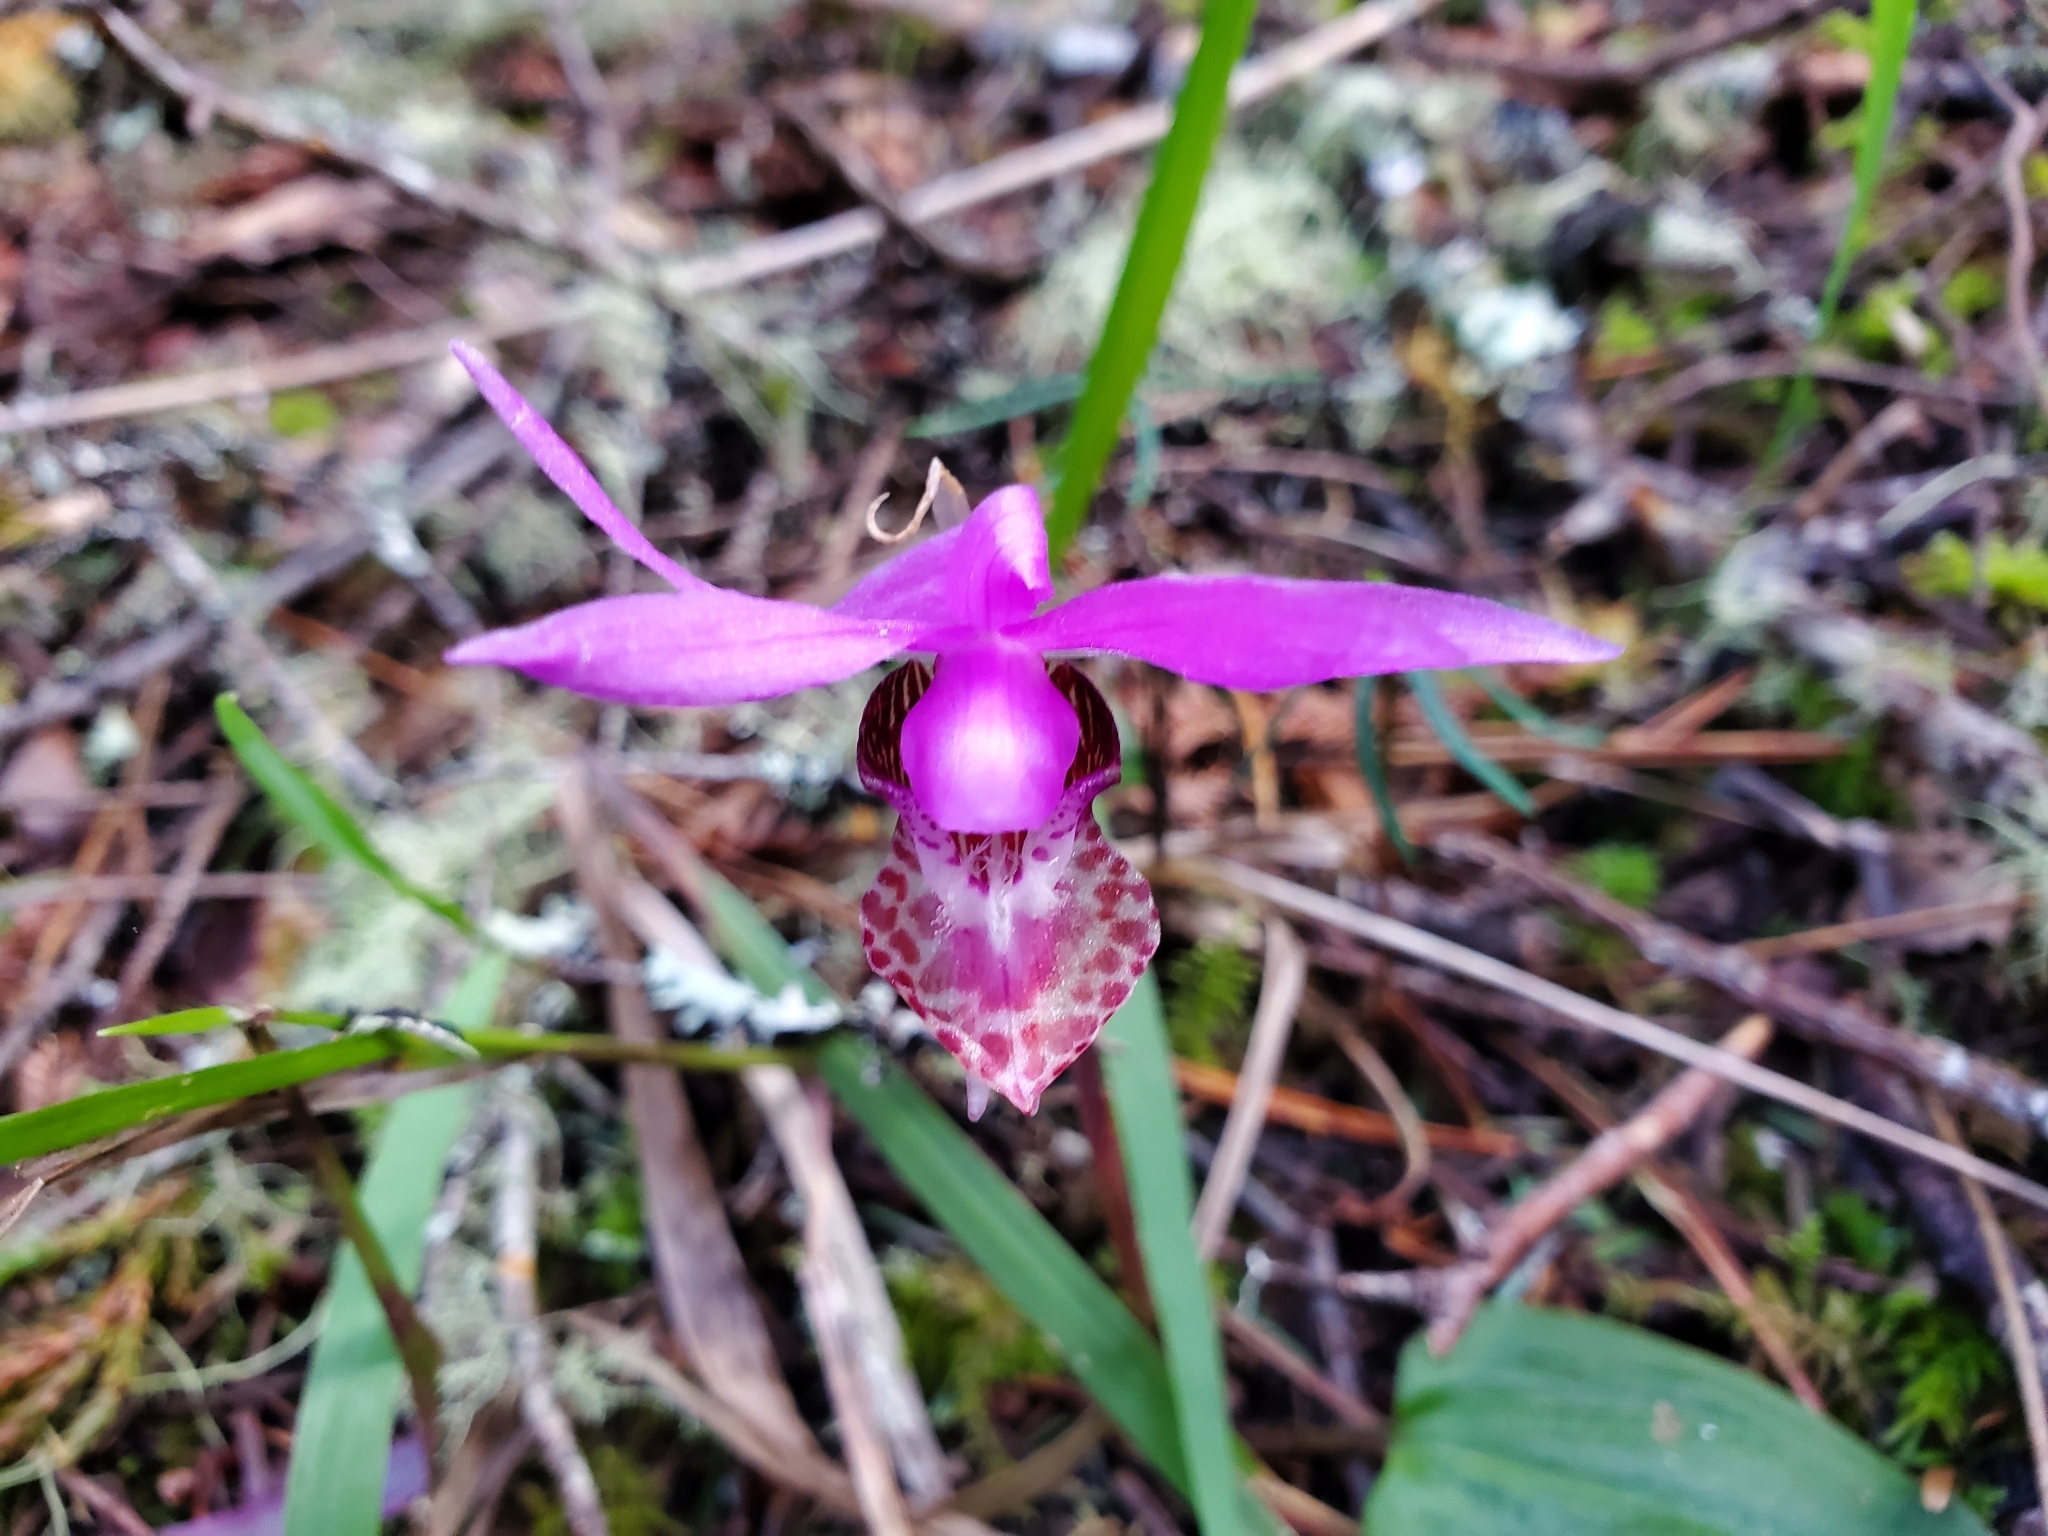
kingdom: Plantae
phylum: Tracheophyta
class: Liliopsida
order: Asparagales
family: Orchidaceae
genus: Calypso
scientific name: Calypso bulbosa
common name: Calypso
